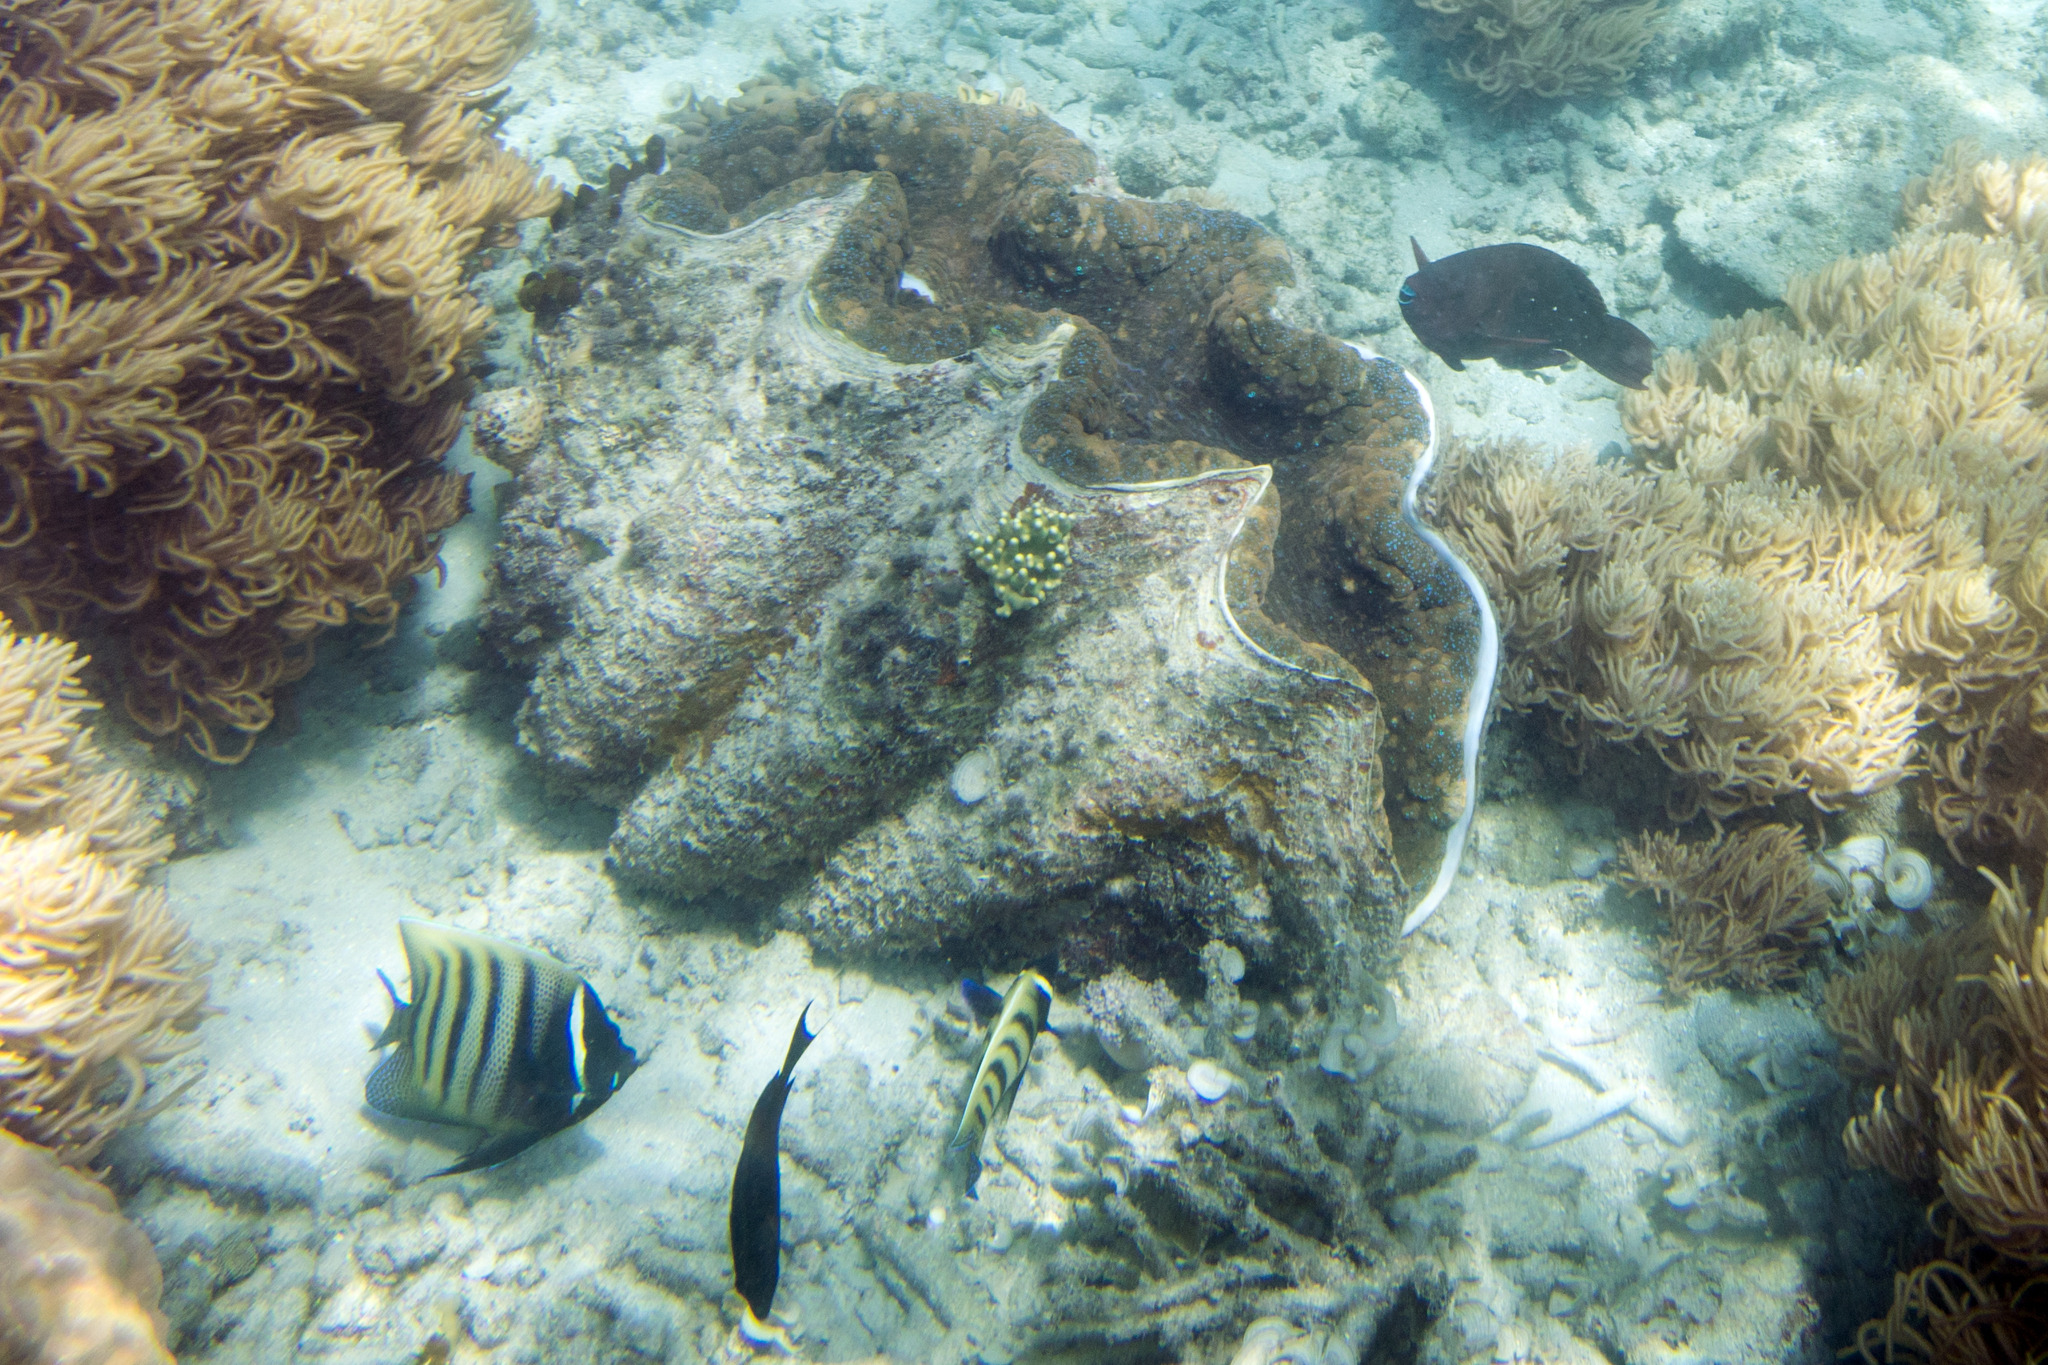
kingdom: Animalia
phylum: Mollusca
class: Bivalvia
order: Cardiida
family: Cardiidae
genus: Tridacna
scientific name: Tridacna gigas
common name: Giant clam
